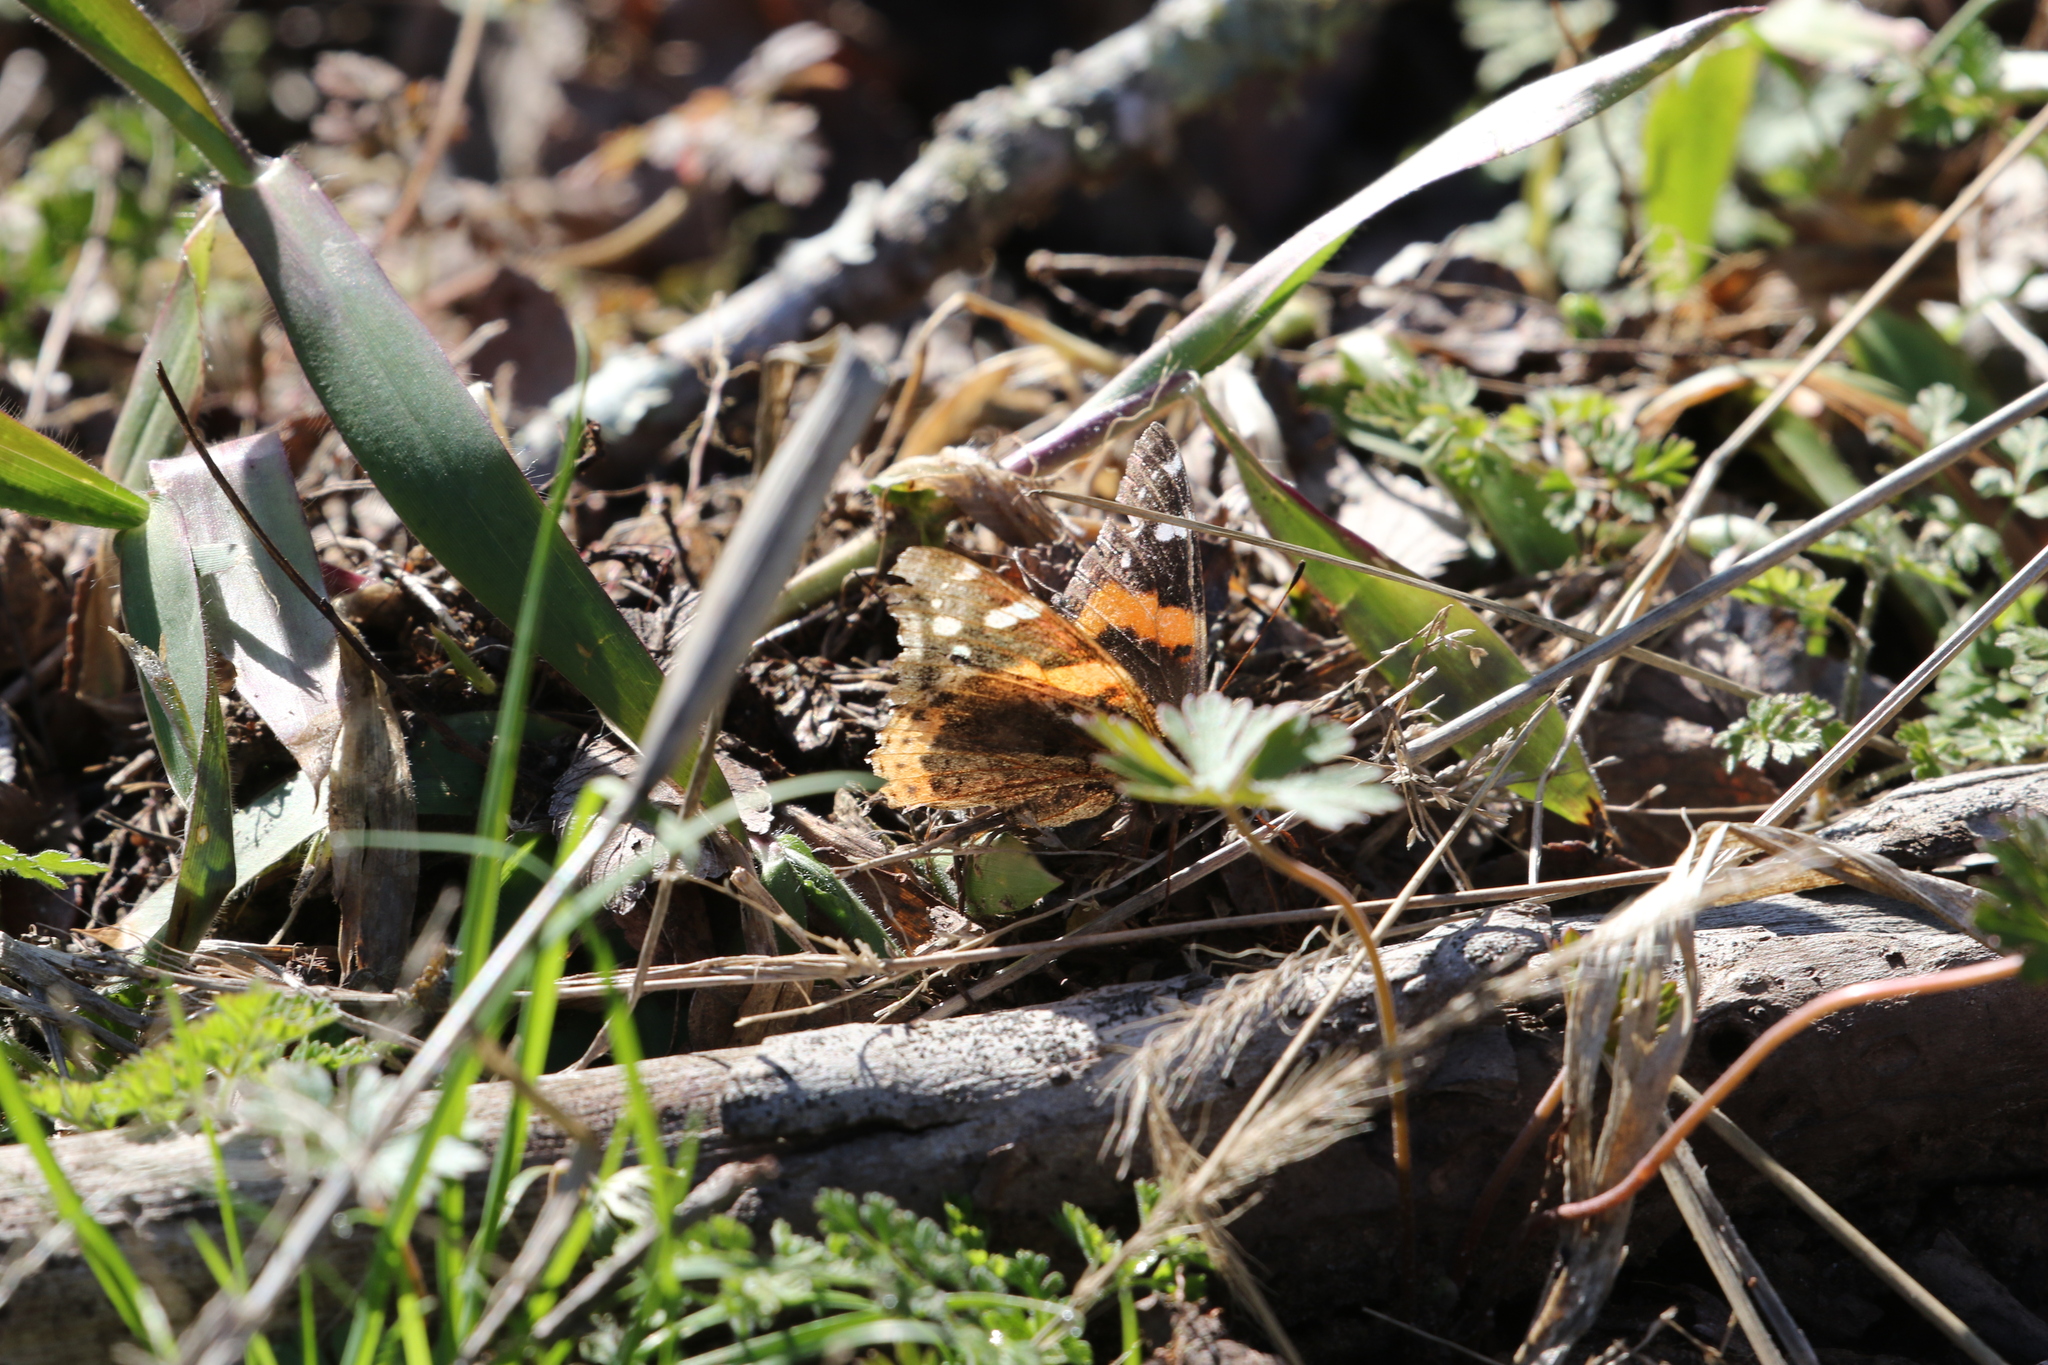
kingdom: Animalia
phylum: Arthropoda
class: Insecta
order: Lepidoptera
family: Nymphalidae
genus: Vanessa
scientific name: Vanessa atalanta
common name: Red admiral
